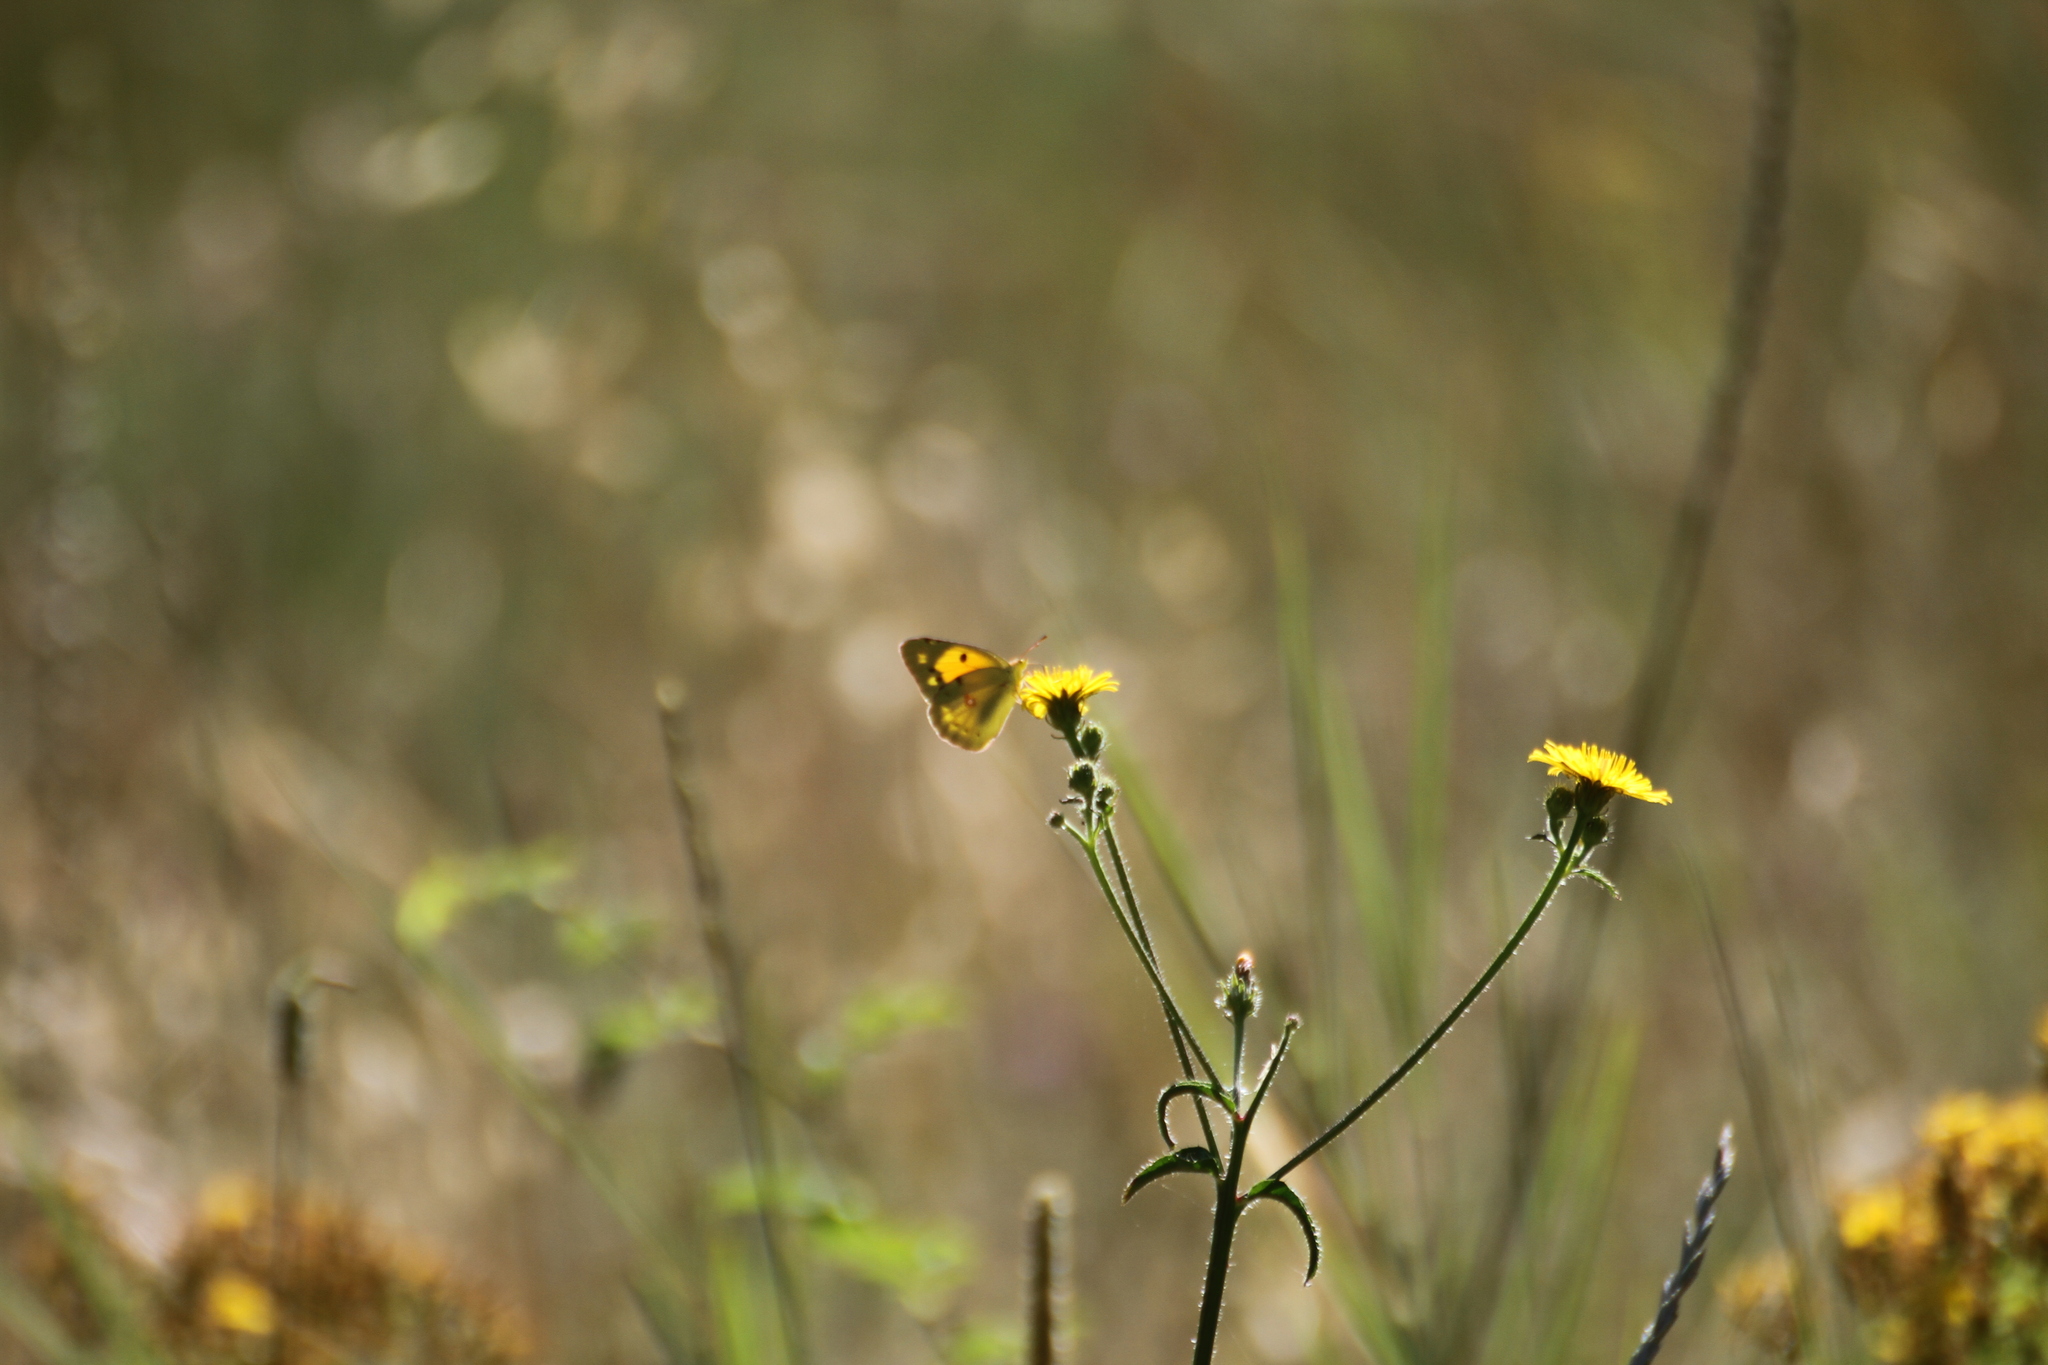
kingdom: Animalia
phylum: Arthropoda
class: Insecta
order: Lepidoptera
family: Pieridae
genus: Colias
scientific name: Colias croceus
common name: Clouded yellow
